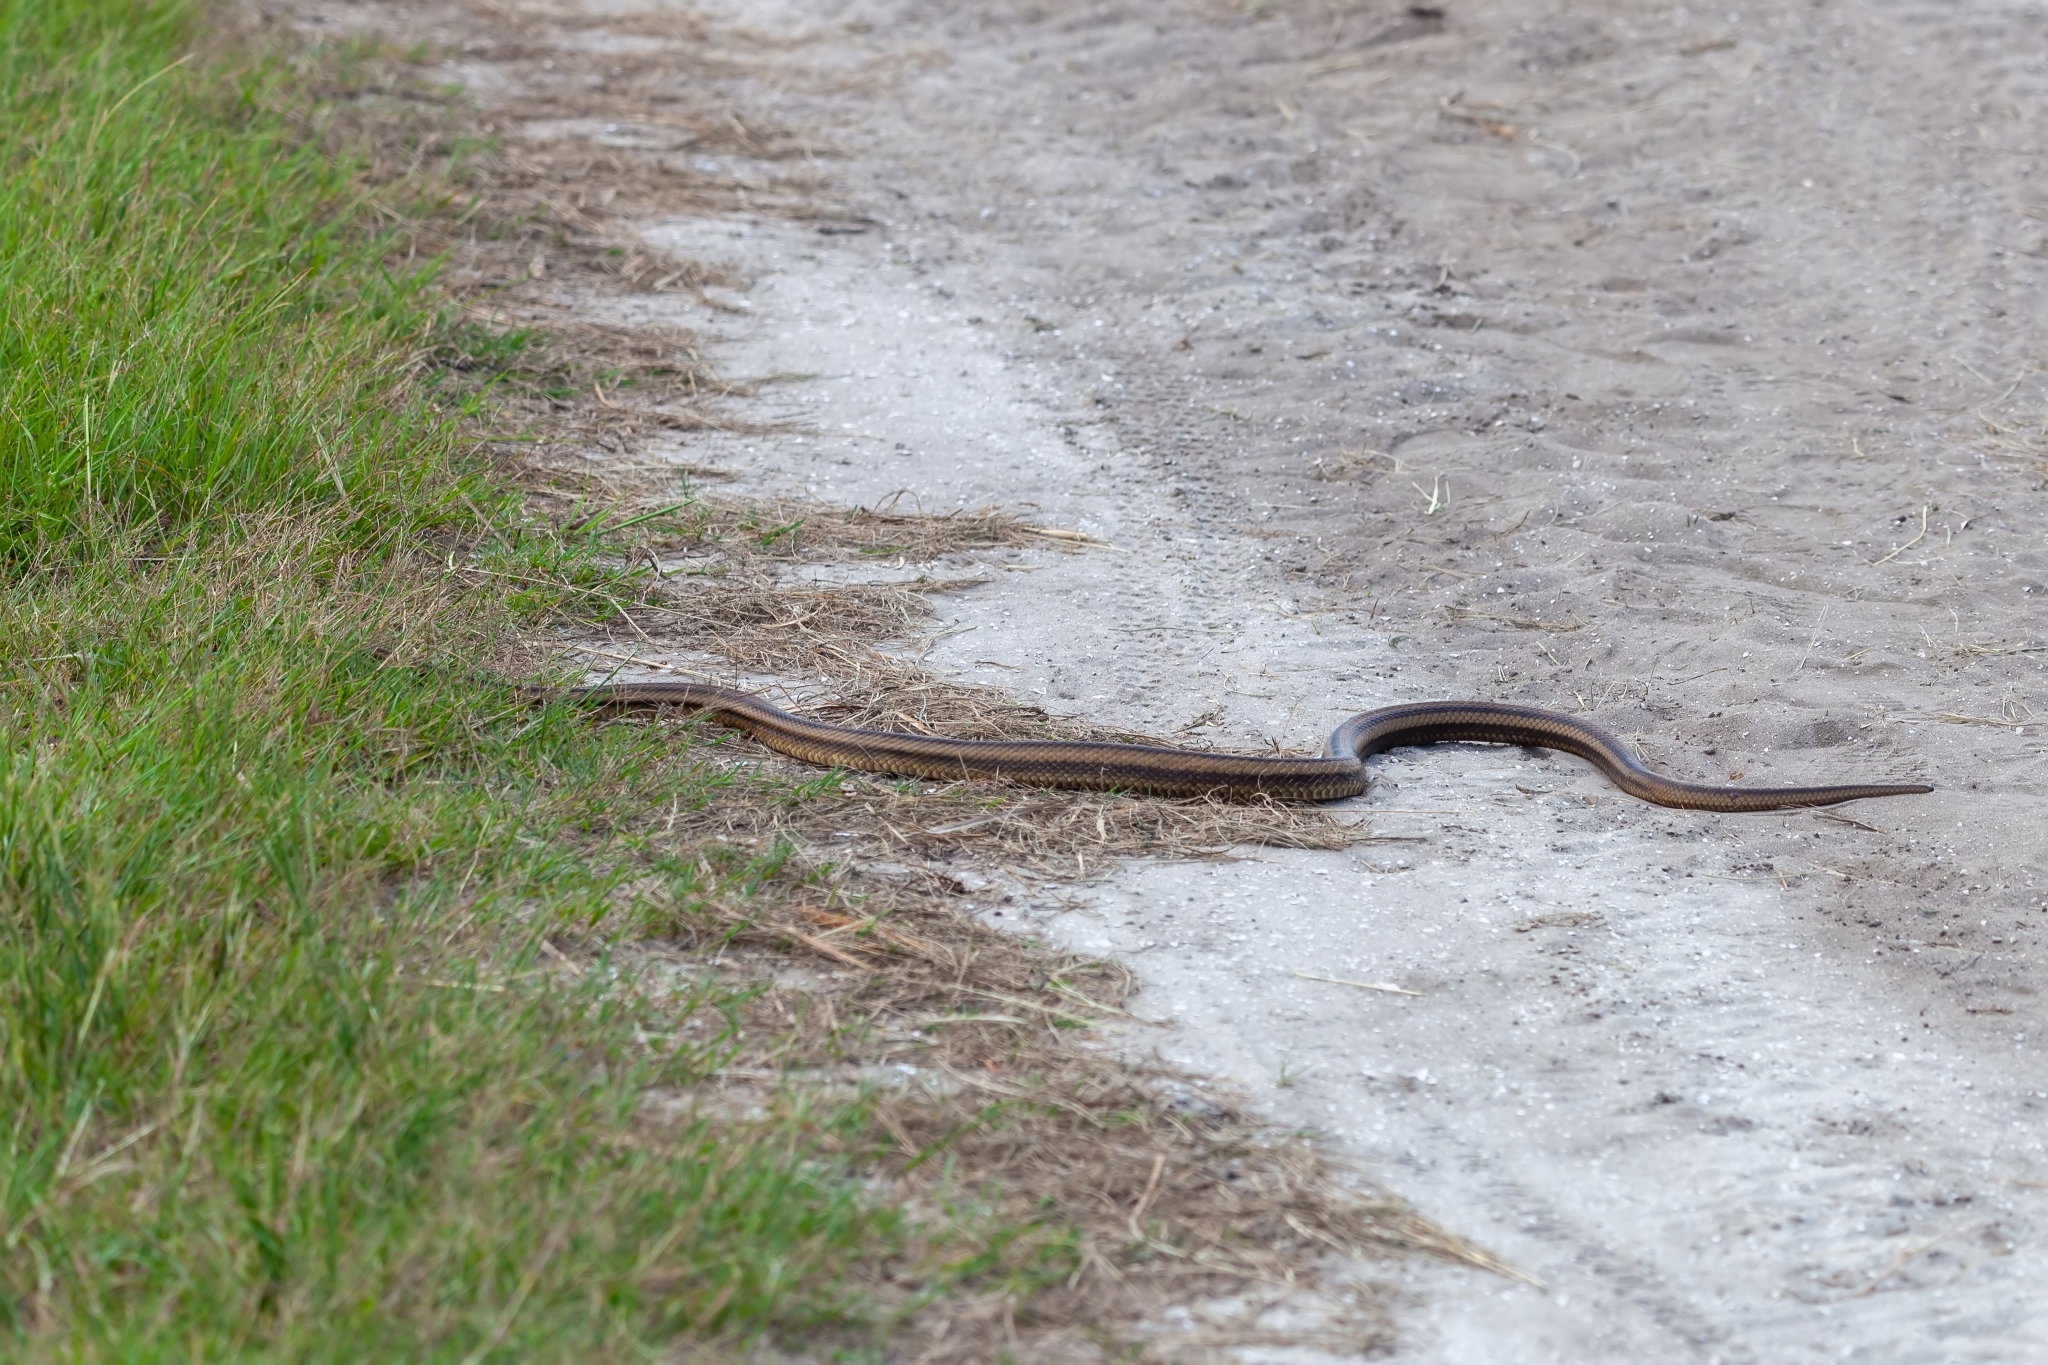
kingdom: Animalia
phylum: Chordata
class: Squamata
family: Colubridae
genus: Pantherophis
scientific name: Pantherophis alleghaniensis
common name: Eastern rat snake
